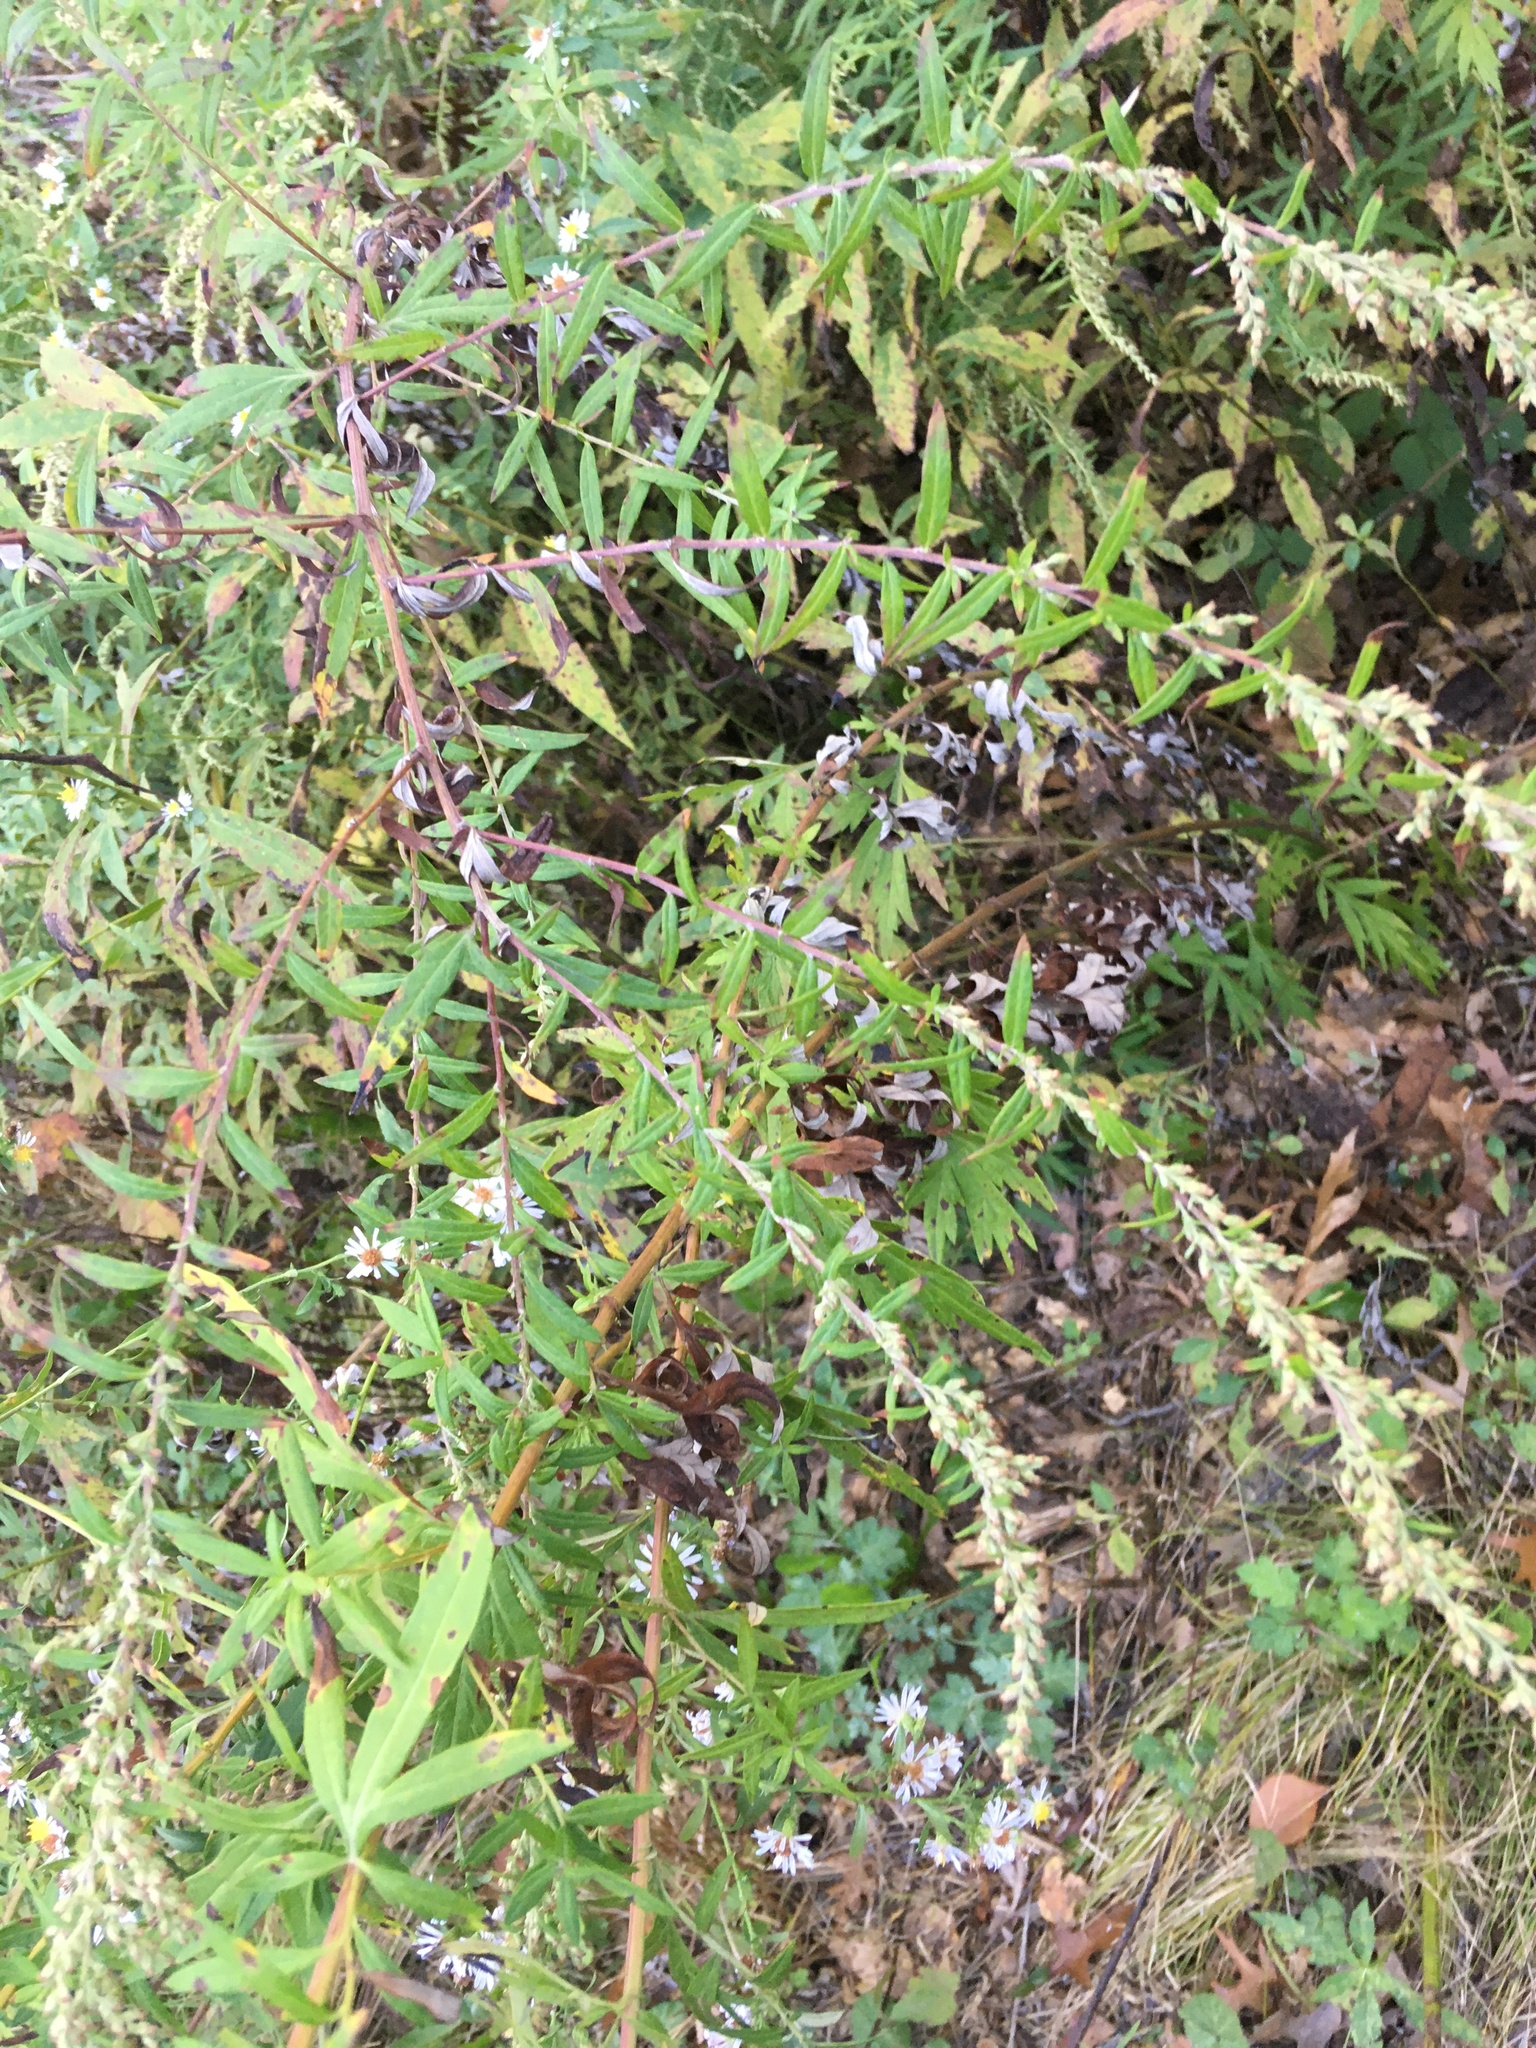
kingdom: Plantae
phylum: Tracheophyta
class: Magnoliopsida
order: Asterales
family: Asteraceae
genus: Artemisia
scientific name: Artemisia vulgaris
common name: Mugwort
